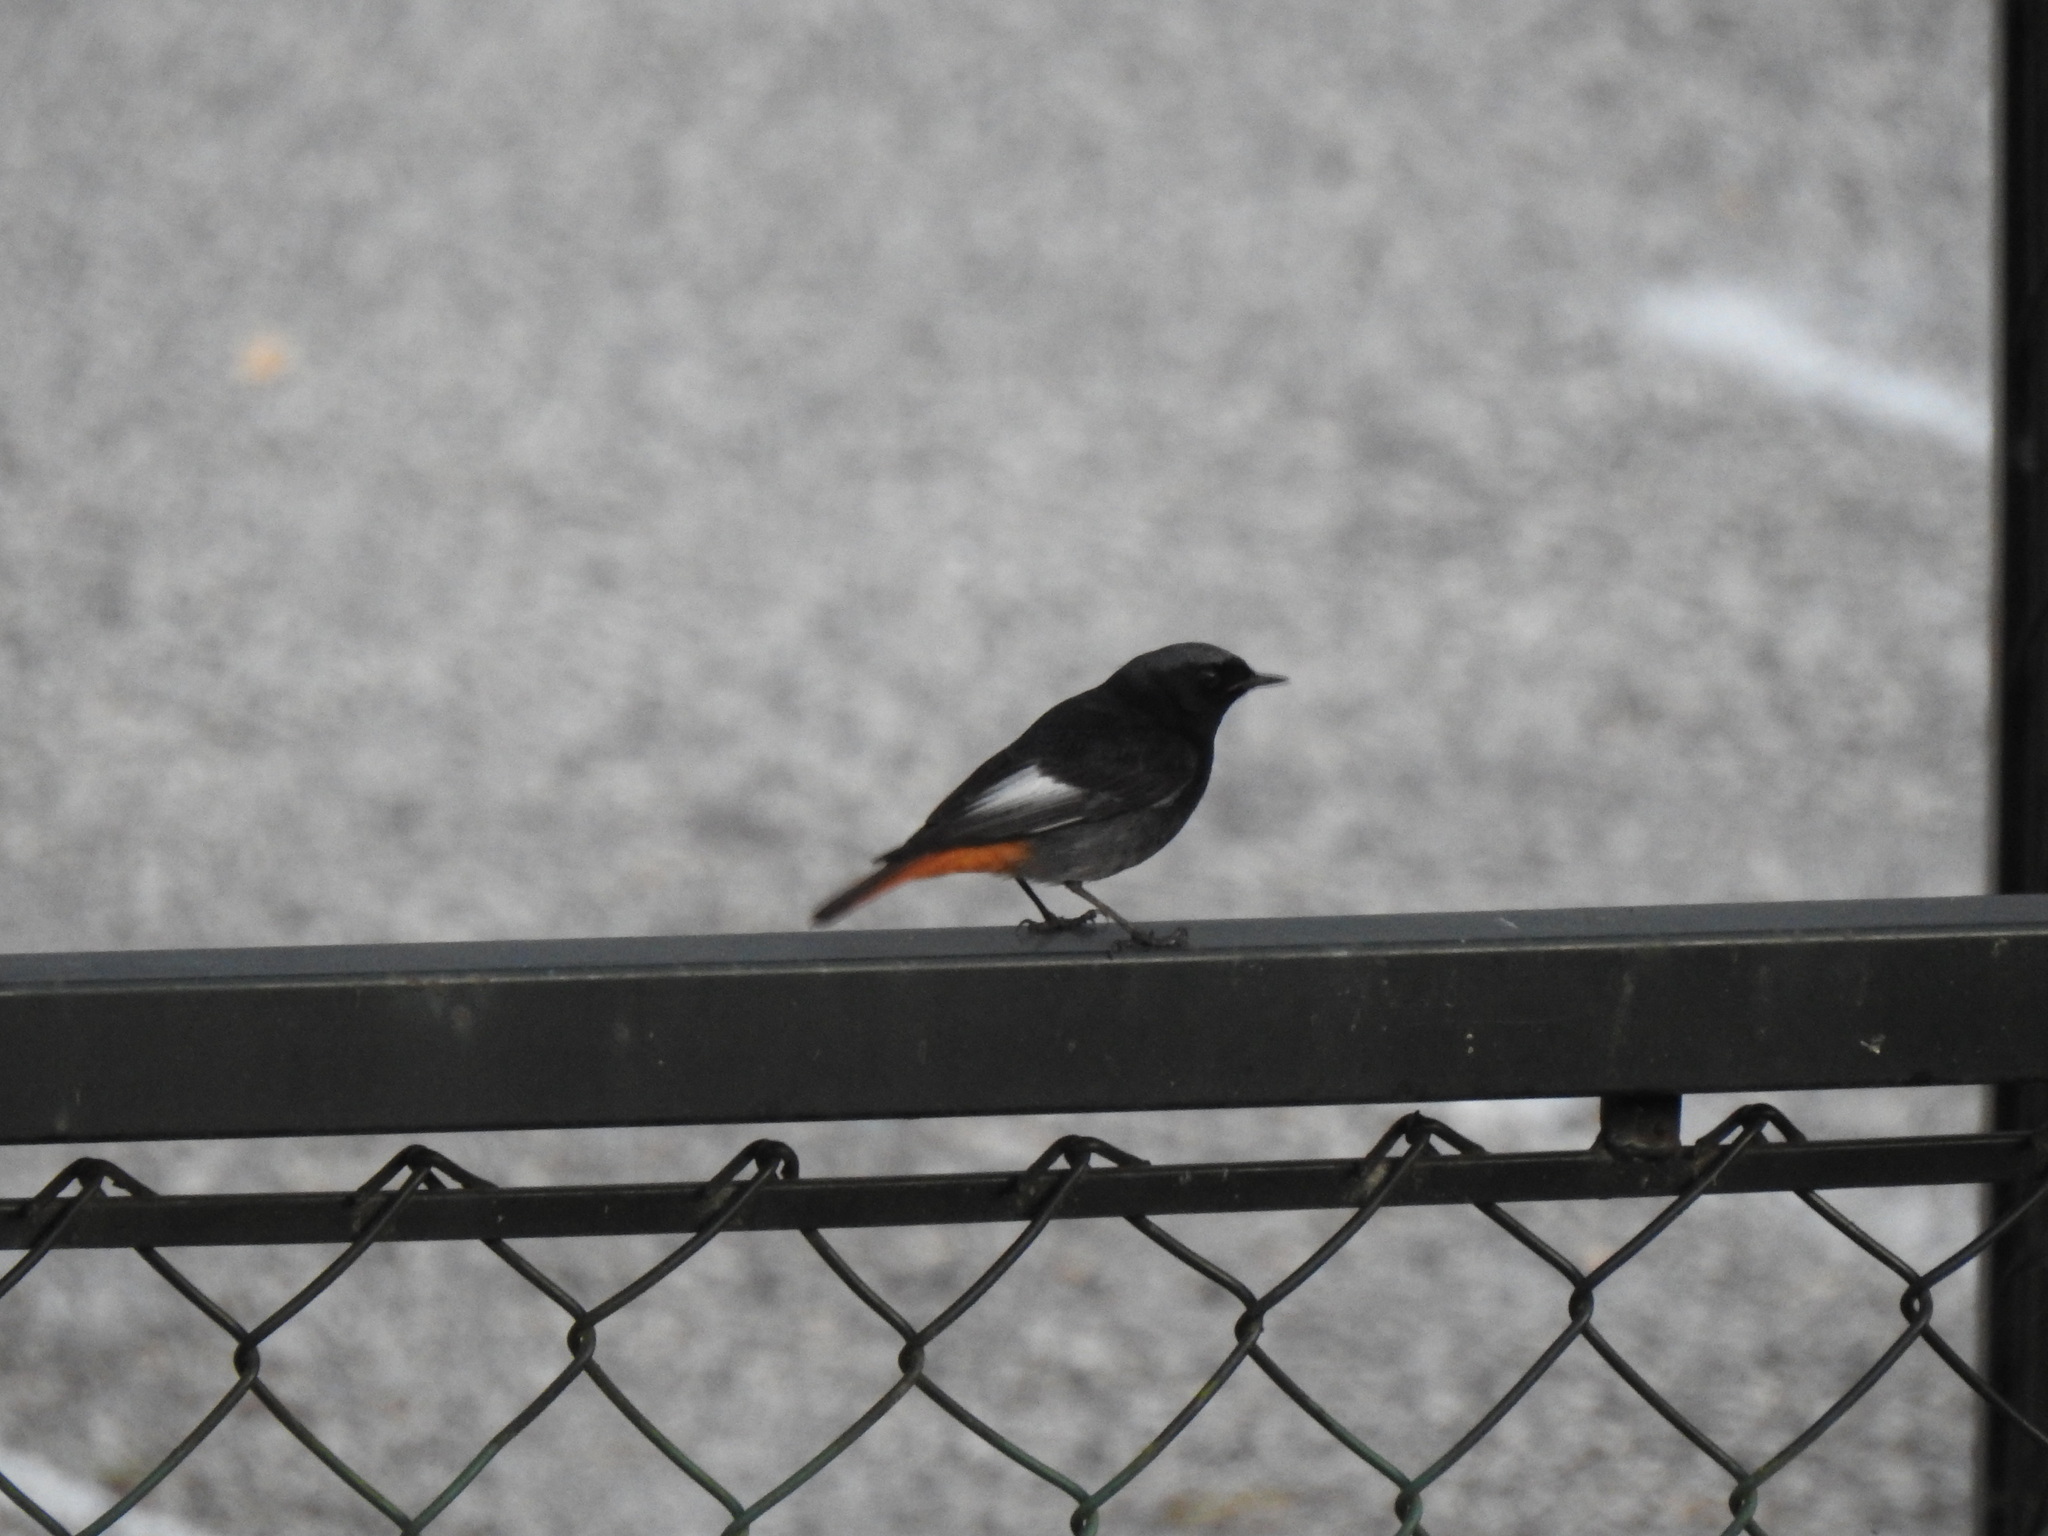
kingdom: Animalia
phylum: Chordata
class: Aves
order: Passeriformes
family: Muscicapidae
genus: Phoenicurus
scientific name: Phoenicurus ochruros
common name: Black redstart
